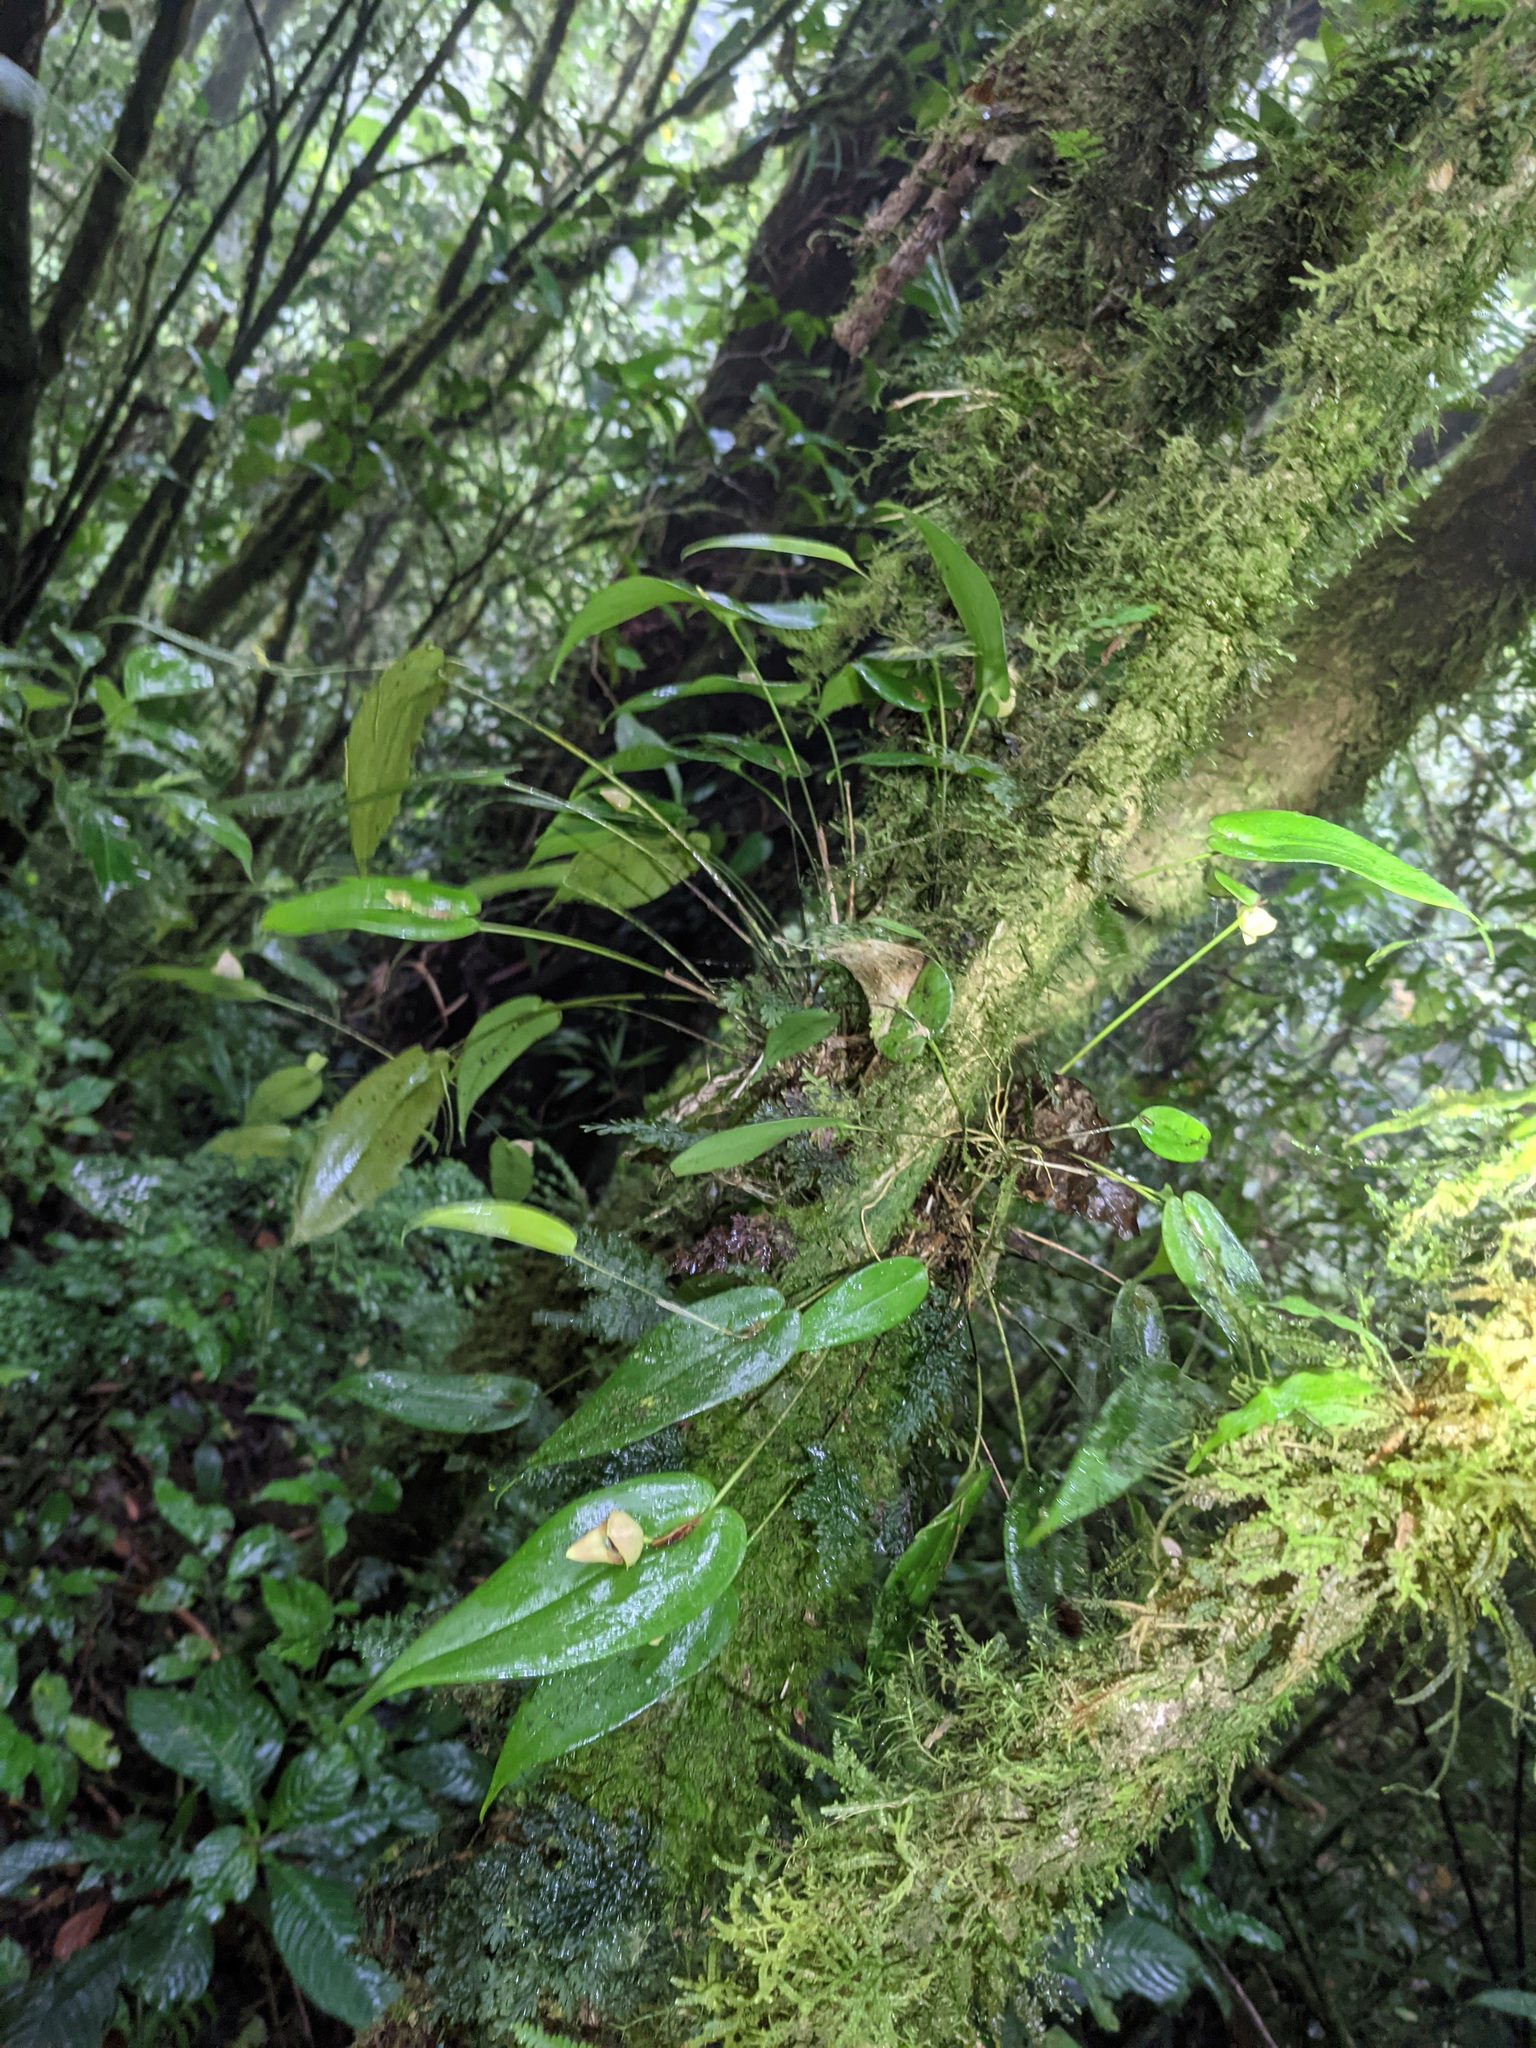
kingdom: Plantae
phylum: Tracheophyta
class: Liliopsida
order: Asparagales
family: Orchidaceae
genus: Pleurothallis
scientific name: Pleurothallis palliolata
